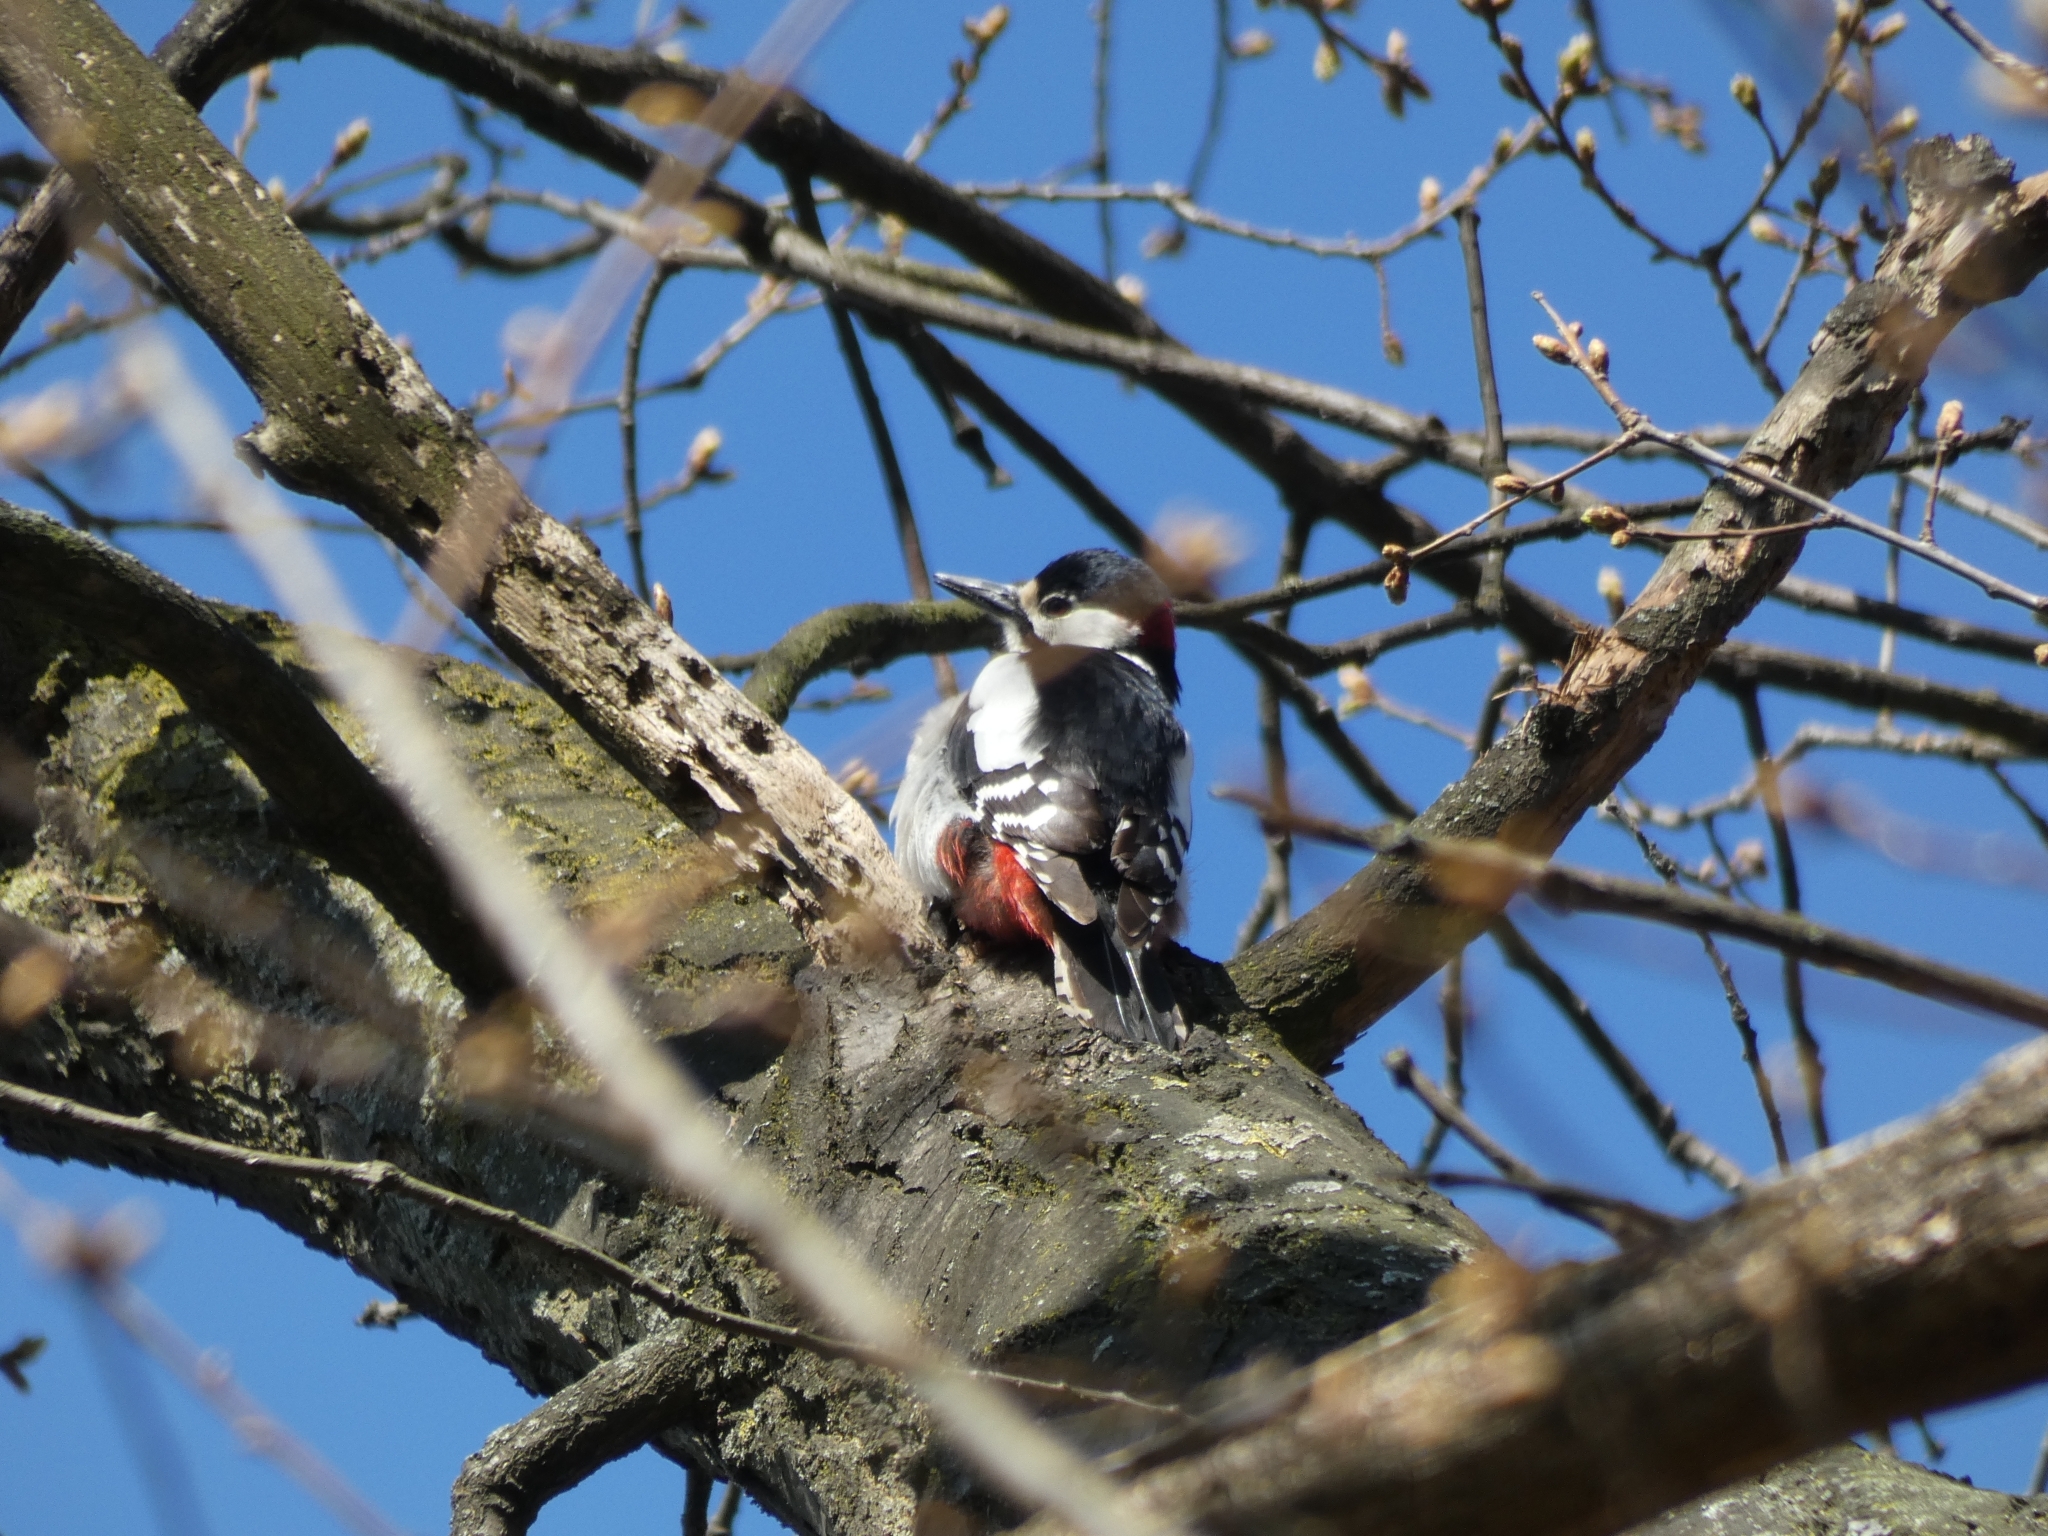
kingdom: Animalia
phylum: Chordata
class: Aves
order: Piciformes
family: Picidae
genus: Dendrocopos
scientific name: Dendrocopos major
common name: Great spotted woodpecker
